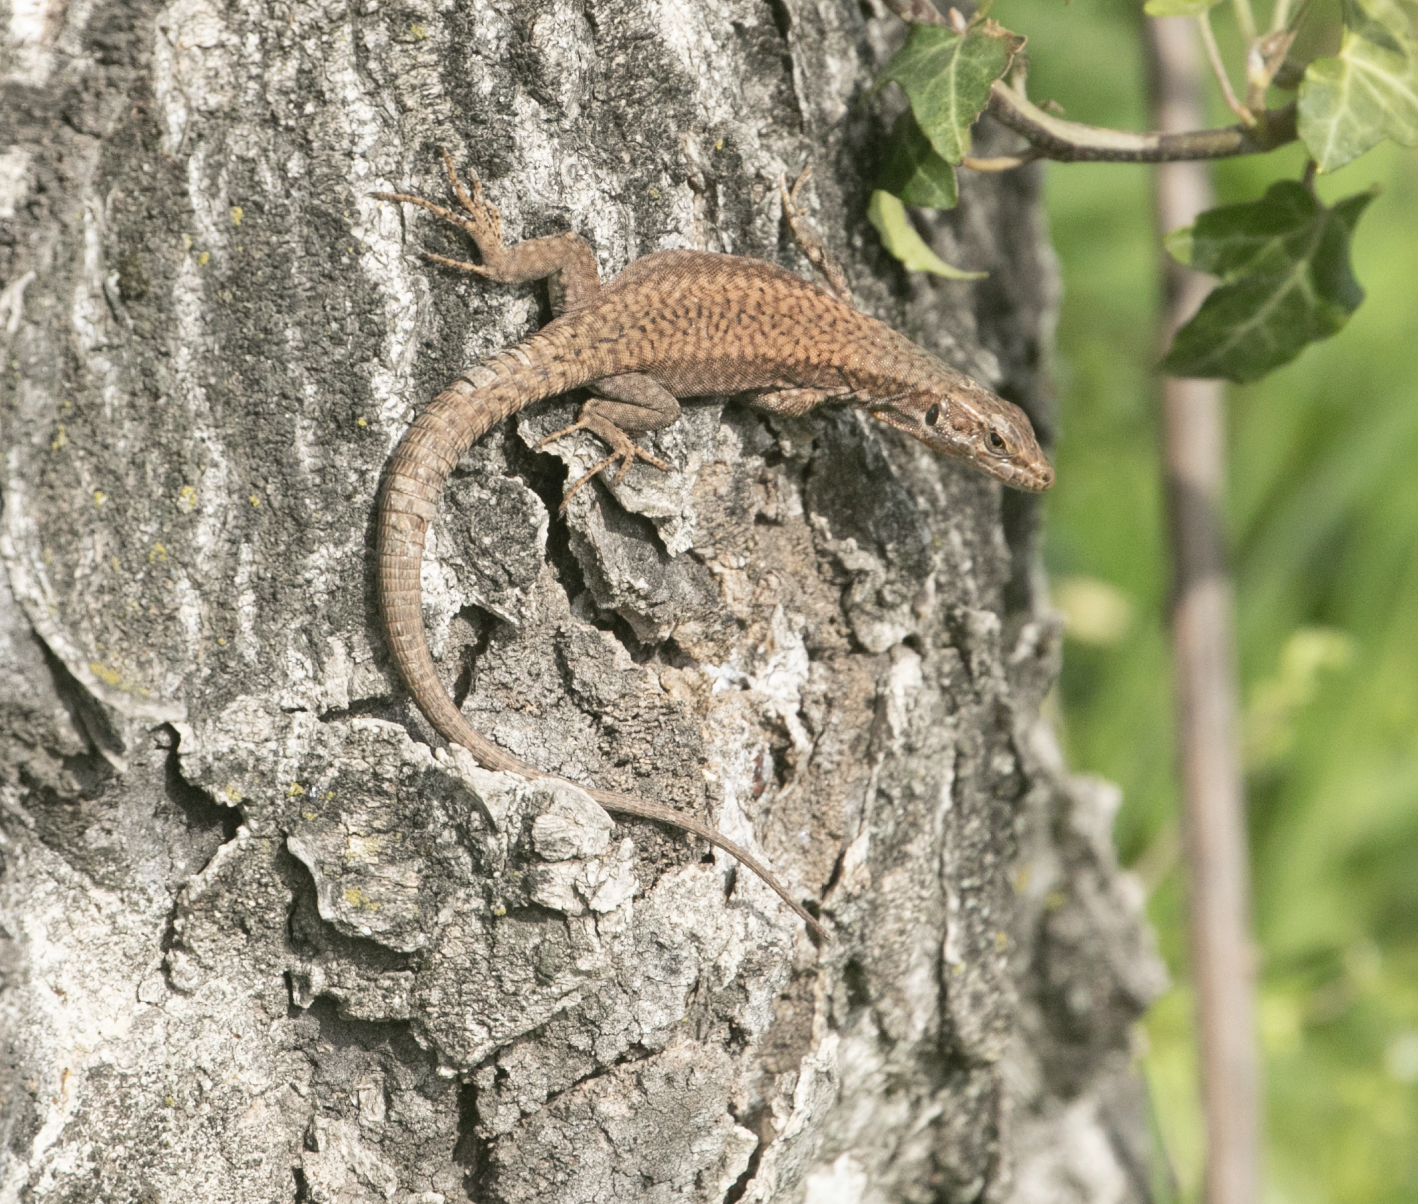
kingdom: Animalia
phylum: Chordata
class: Squamata
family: Lacertidae
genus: Podarcis
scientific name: Podarcis muralis
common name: Common wall lizard
